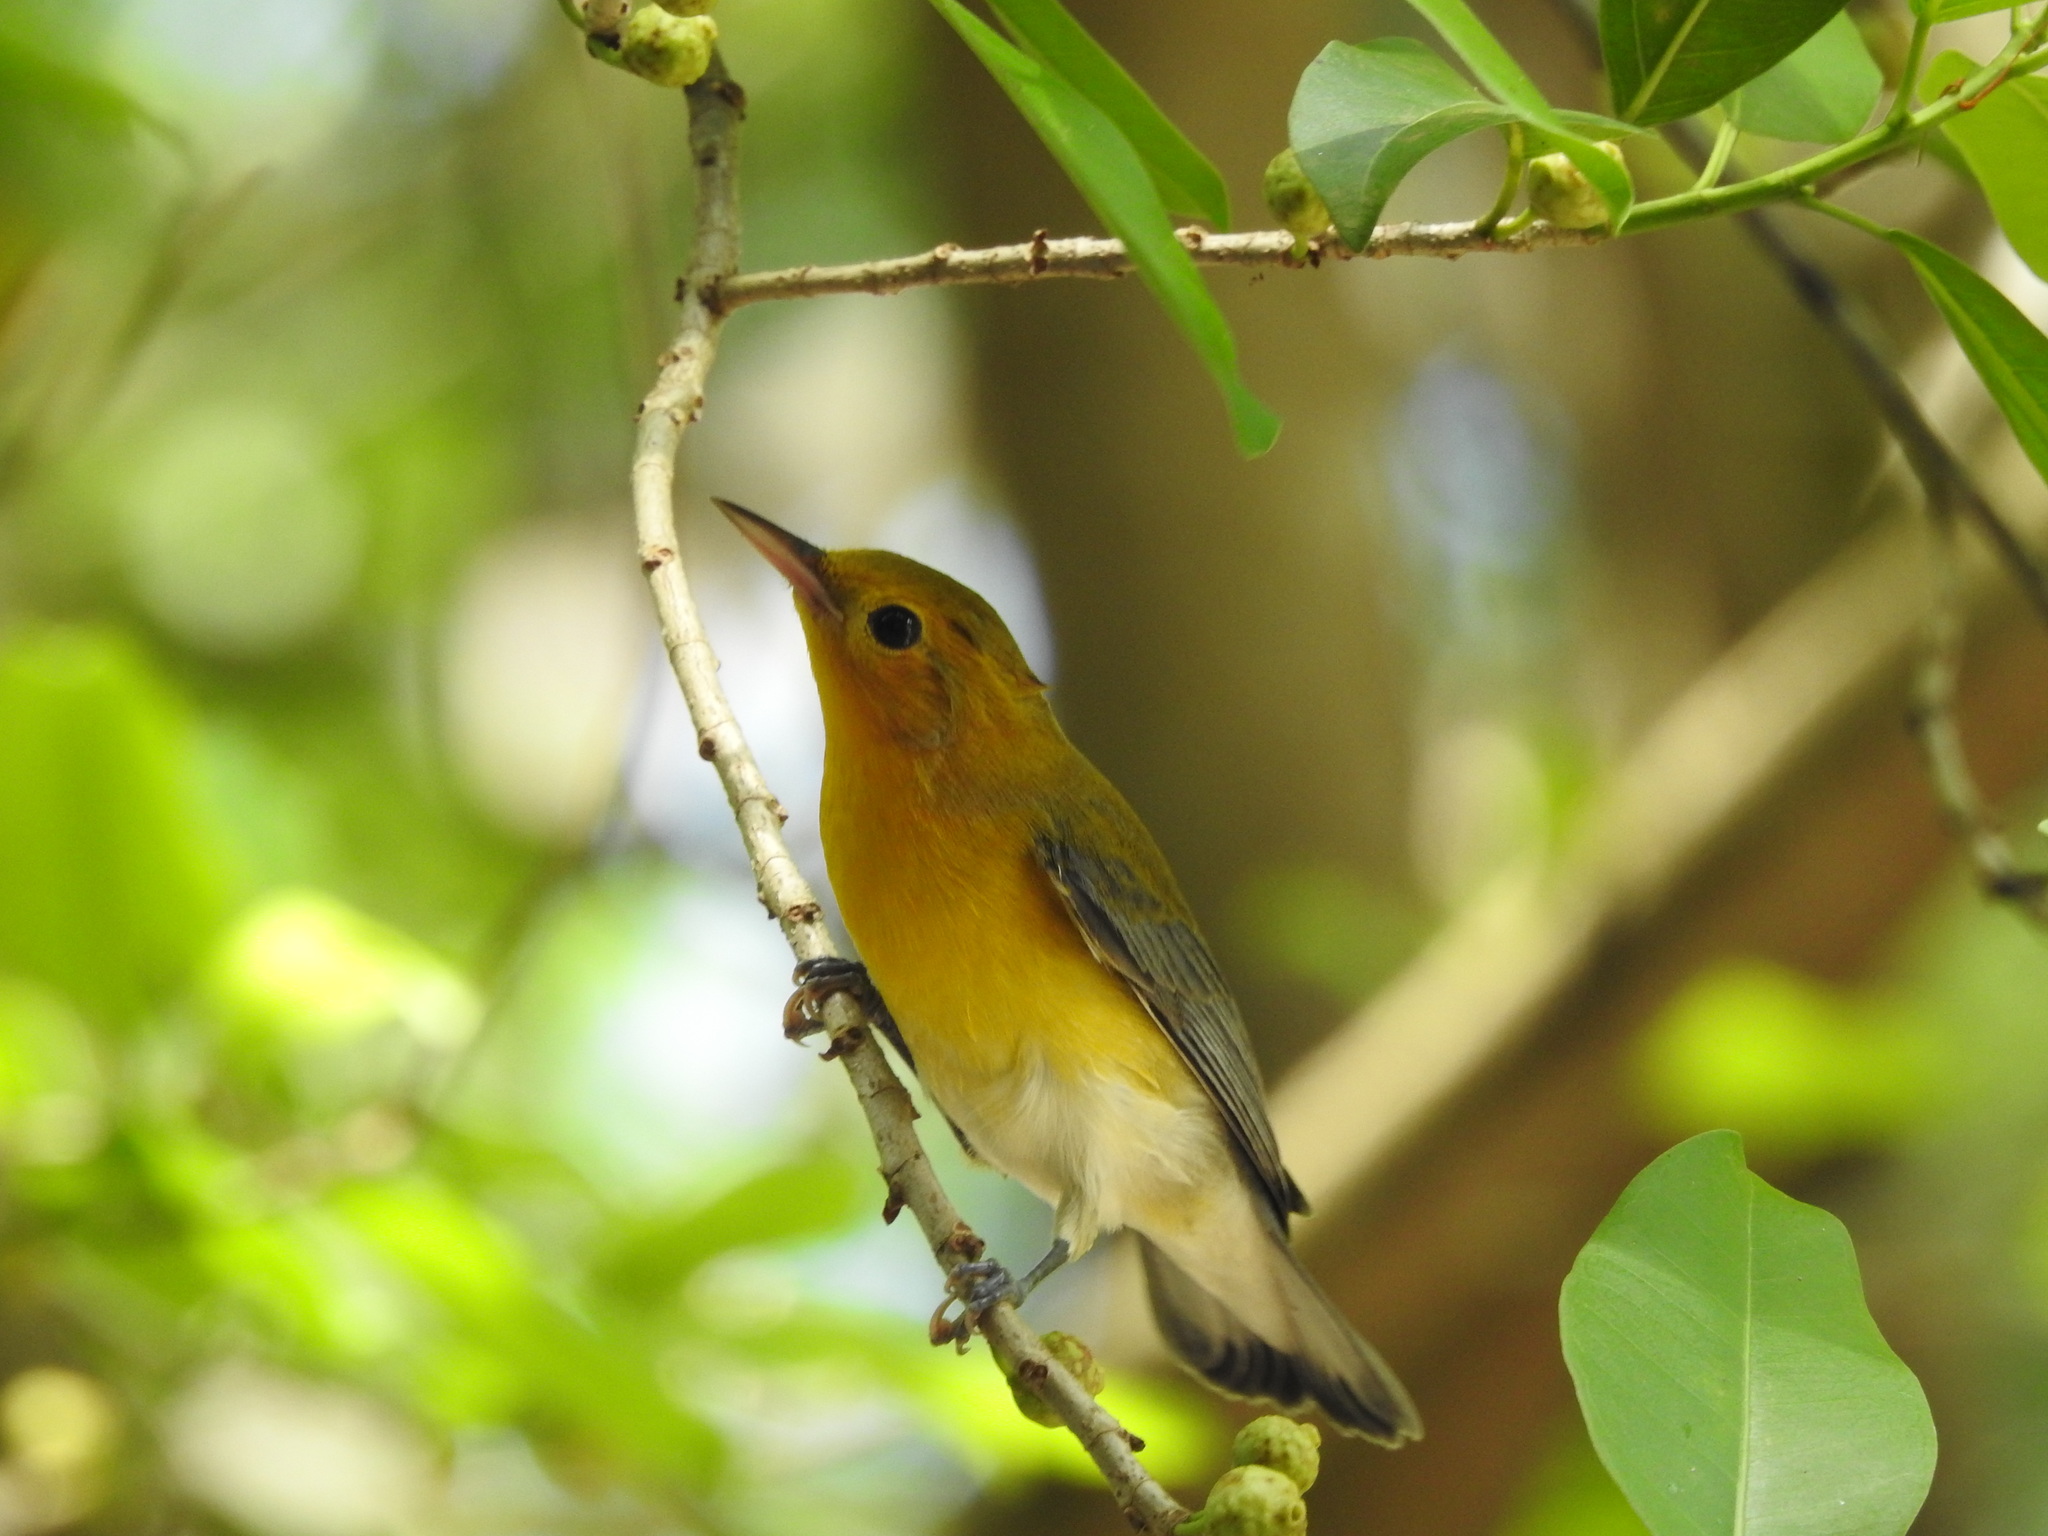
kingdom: Animalia
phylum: Chordata
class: Aves
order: Passeriformes
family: Parulidae
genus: Protonotaria
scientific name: Protonotaria citrea
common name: Prothonotary warbler
